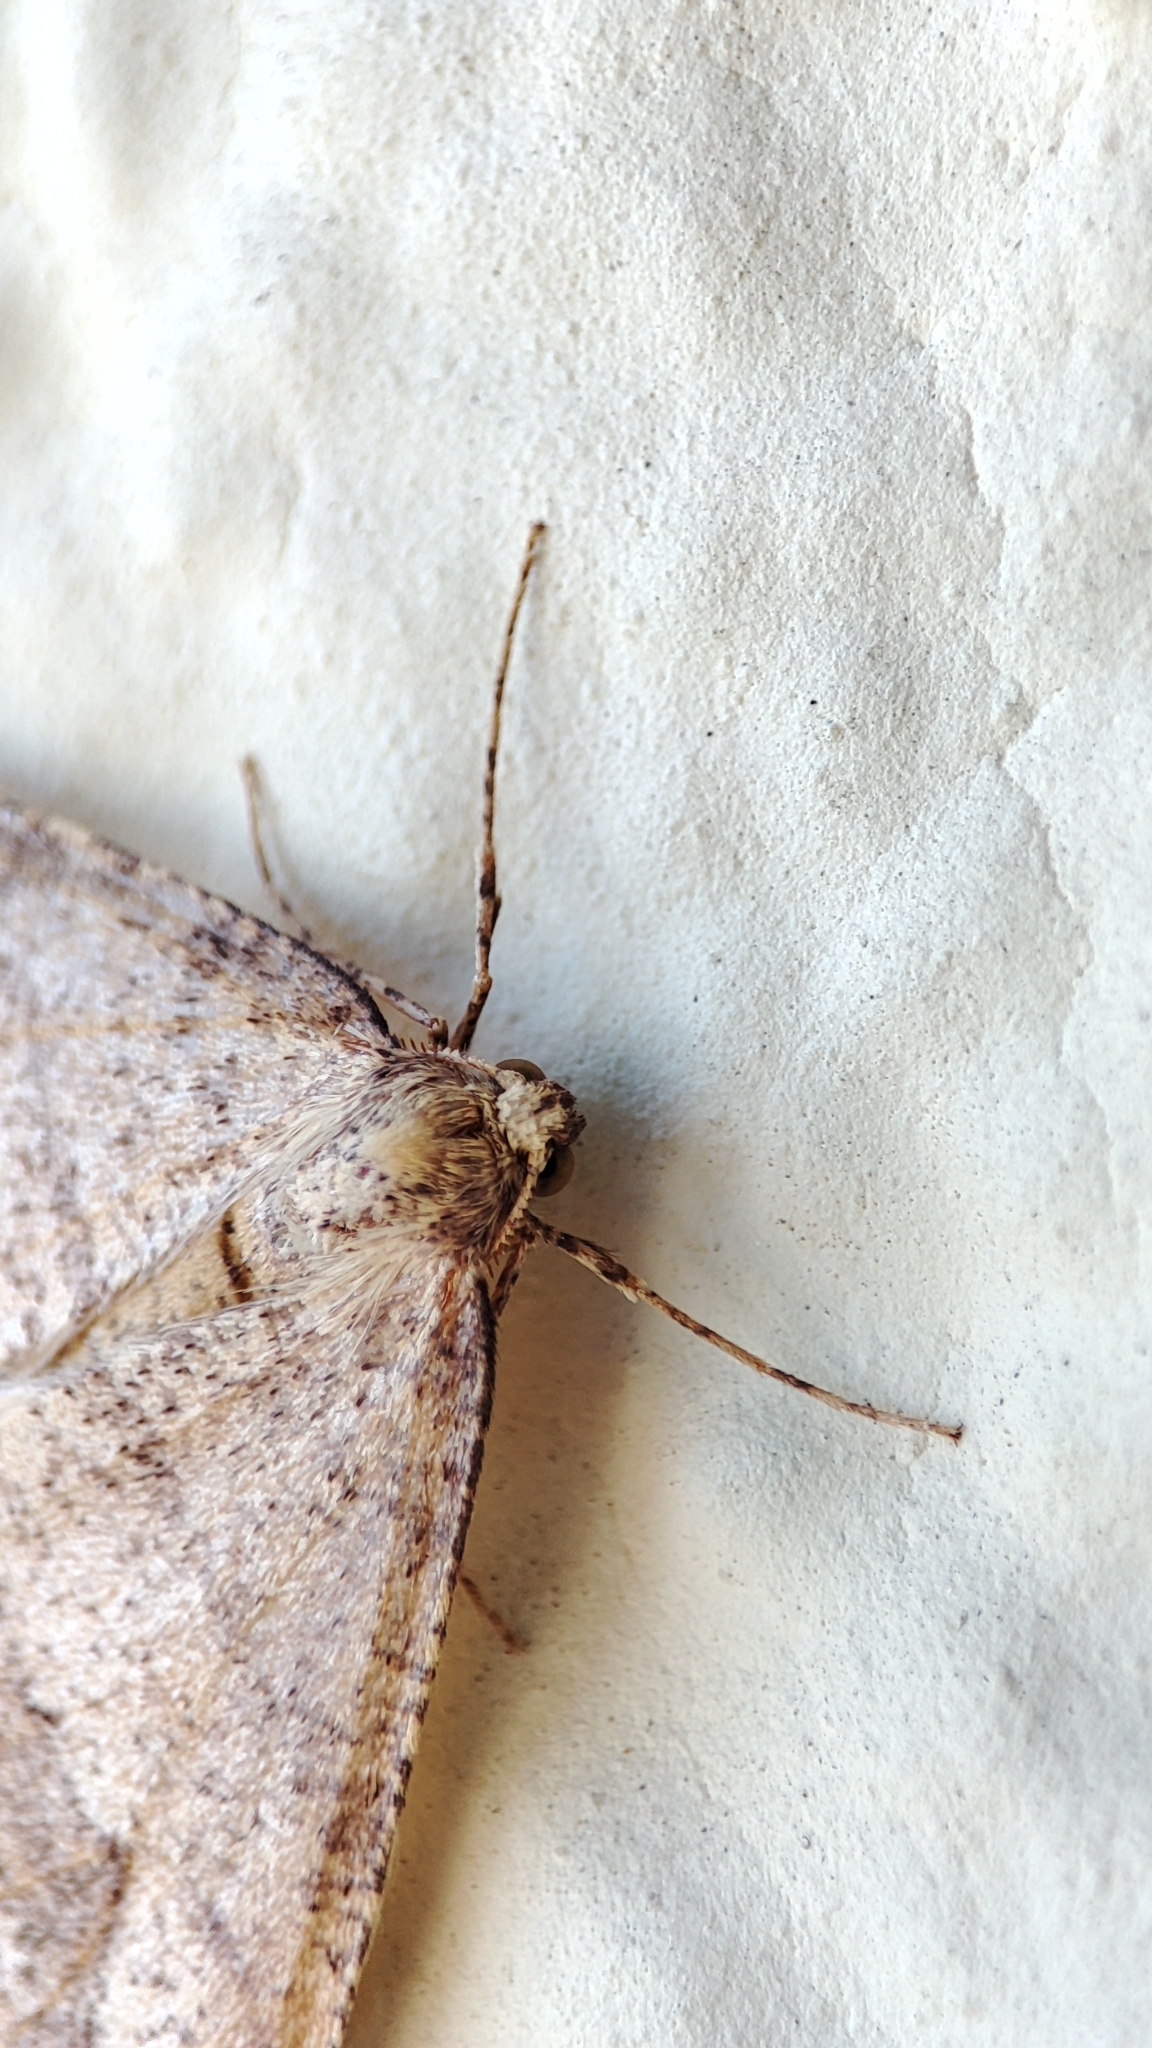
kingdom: Animalia
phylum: Arthropoda
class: Insecta
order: Lepidoptera
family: Geometridae
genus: Agriopis
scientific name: Agriopis marginaria
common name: Dotted border
